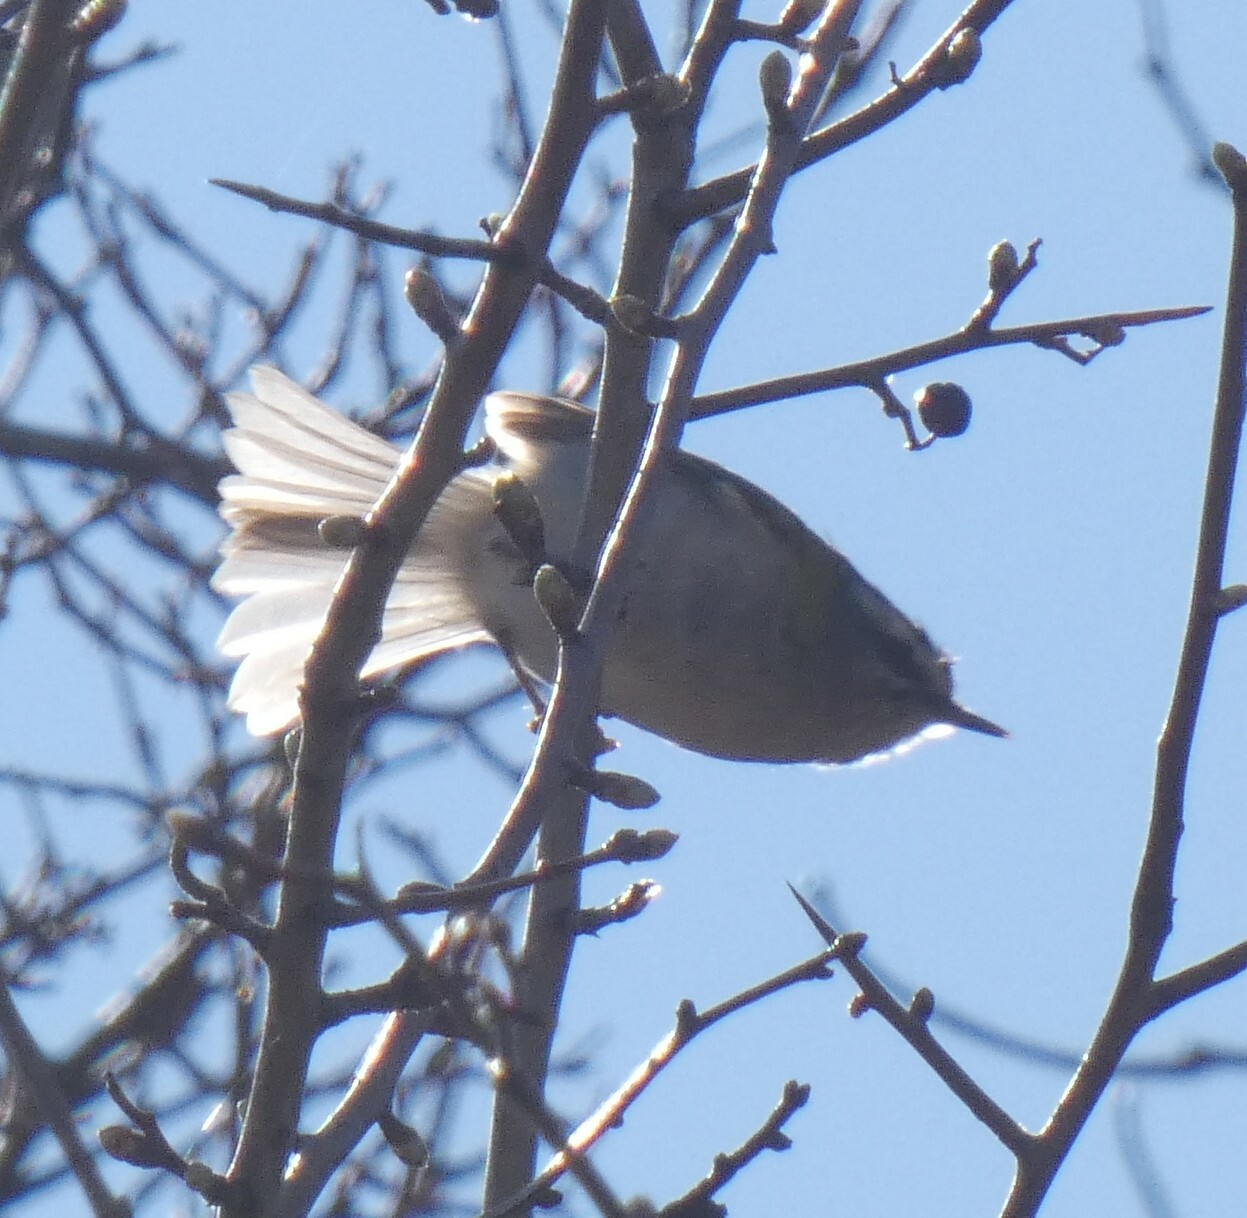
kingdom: Animalia
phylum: Chordata
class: Aves
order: Passeriformes
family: Regulidae
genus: Regulus
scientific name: Regulus ignicapilla
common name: Firecrest
